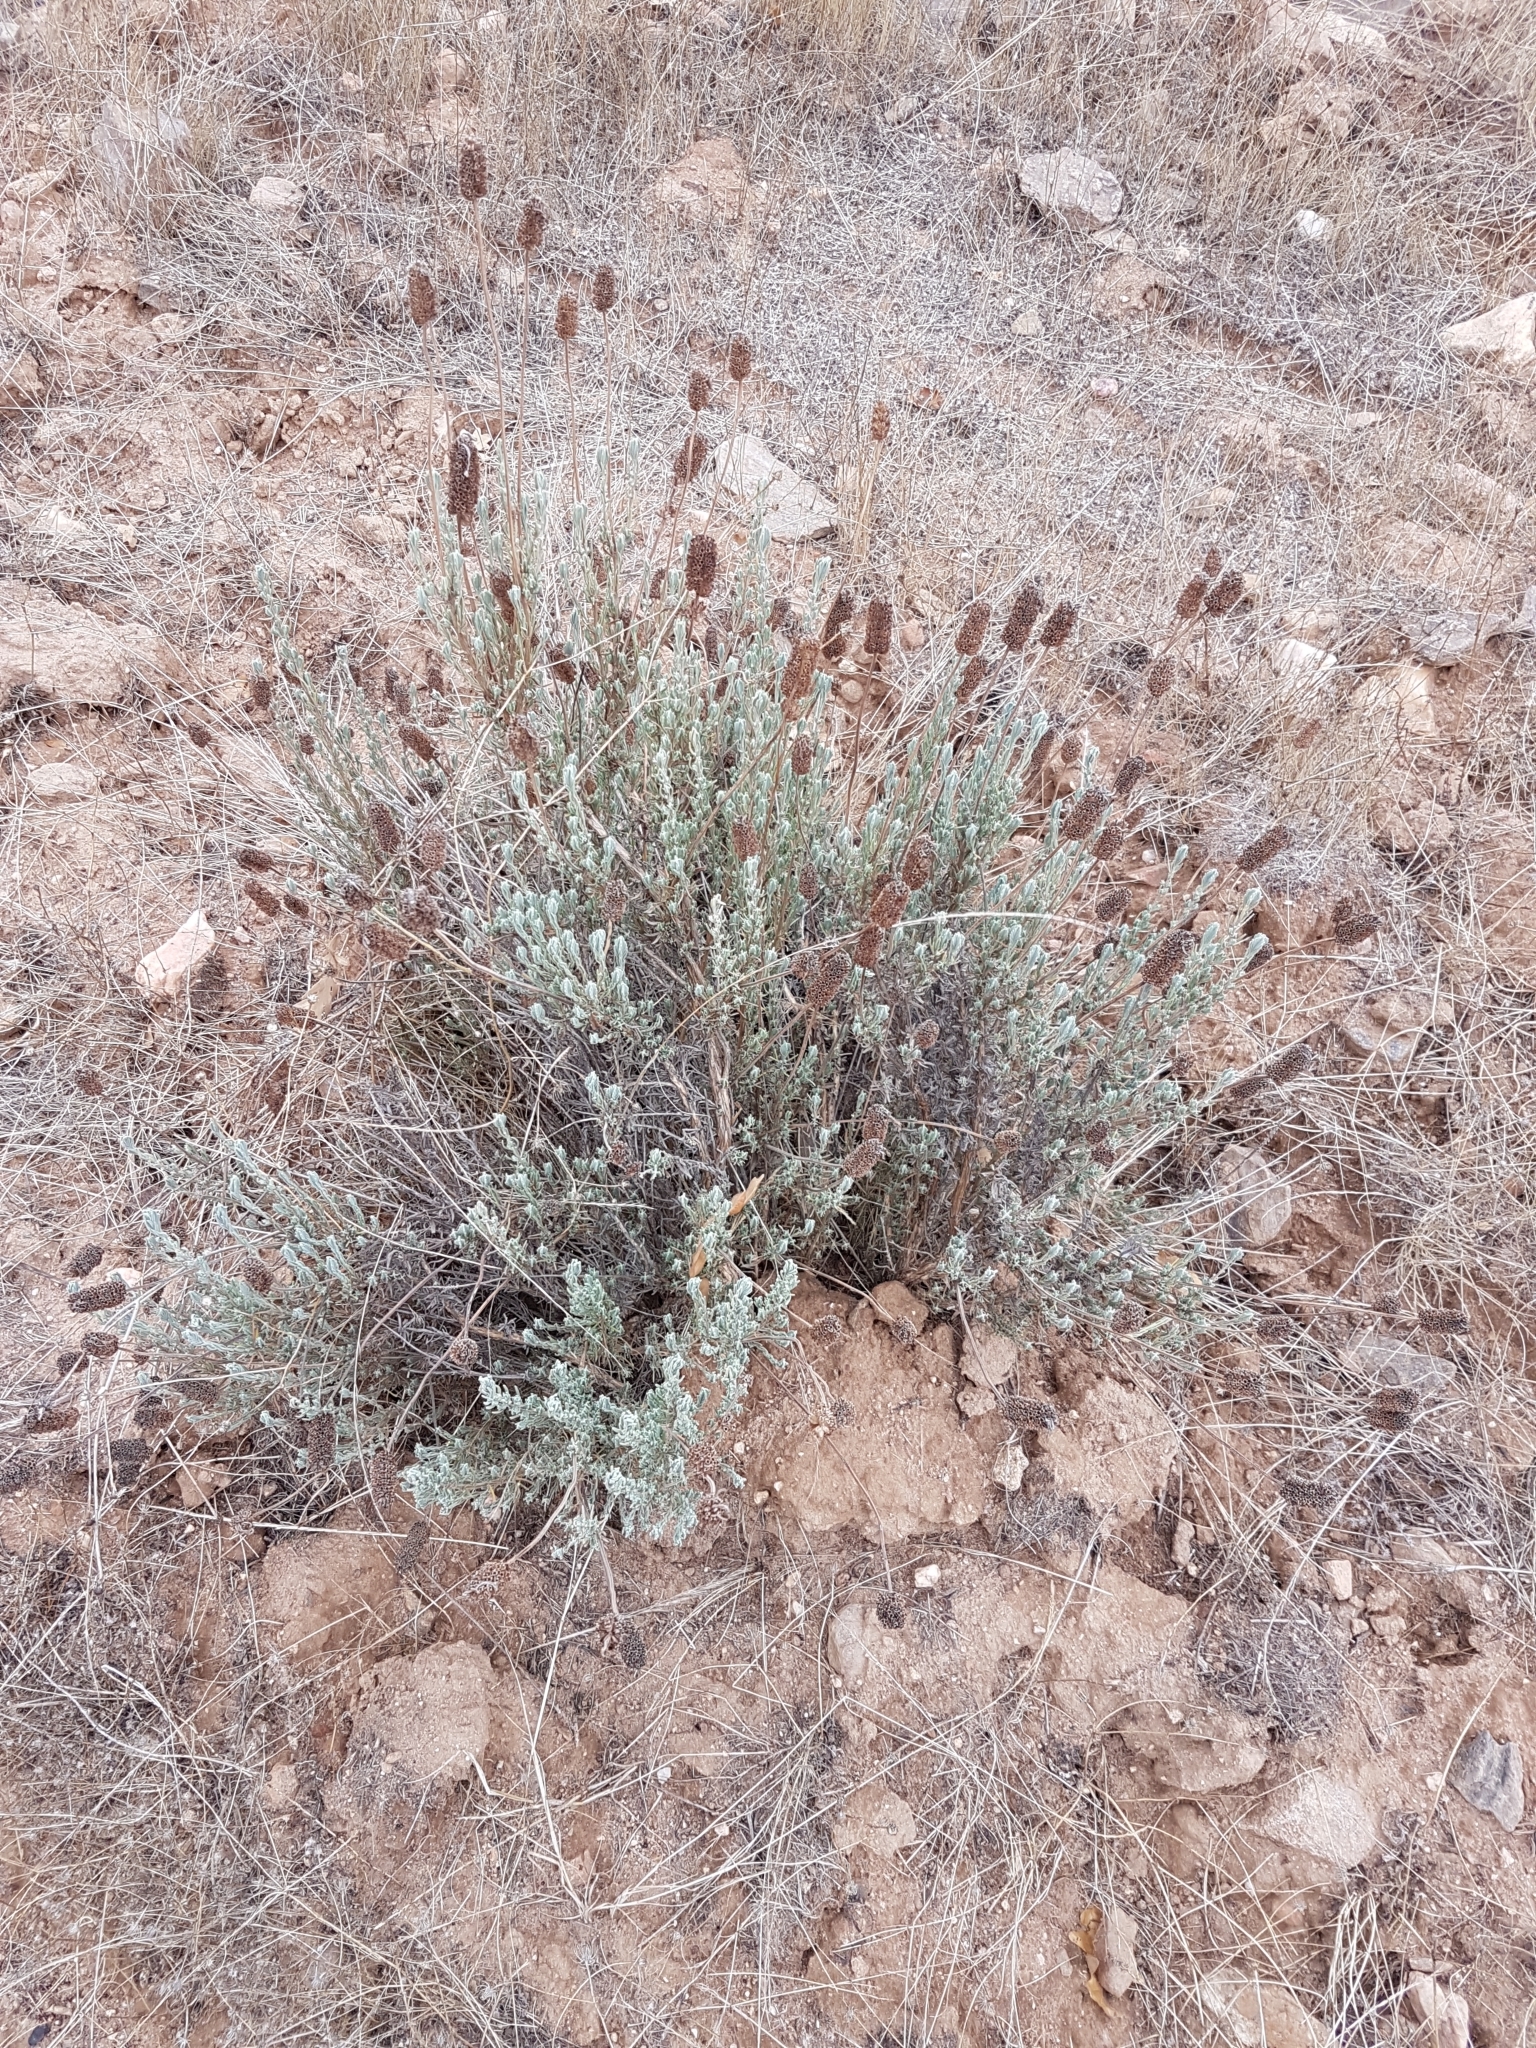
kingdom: Plantae
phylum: Tracheophyta
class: Magnoliopsida
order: Lamiales
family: Lamiaceae
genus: Lavandula
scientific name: Lavandula pedunculata
